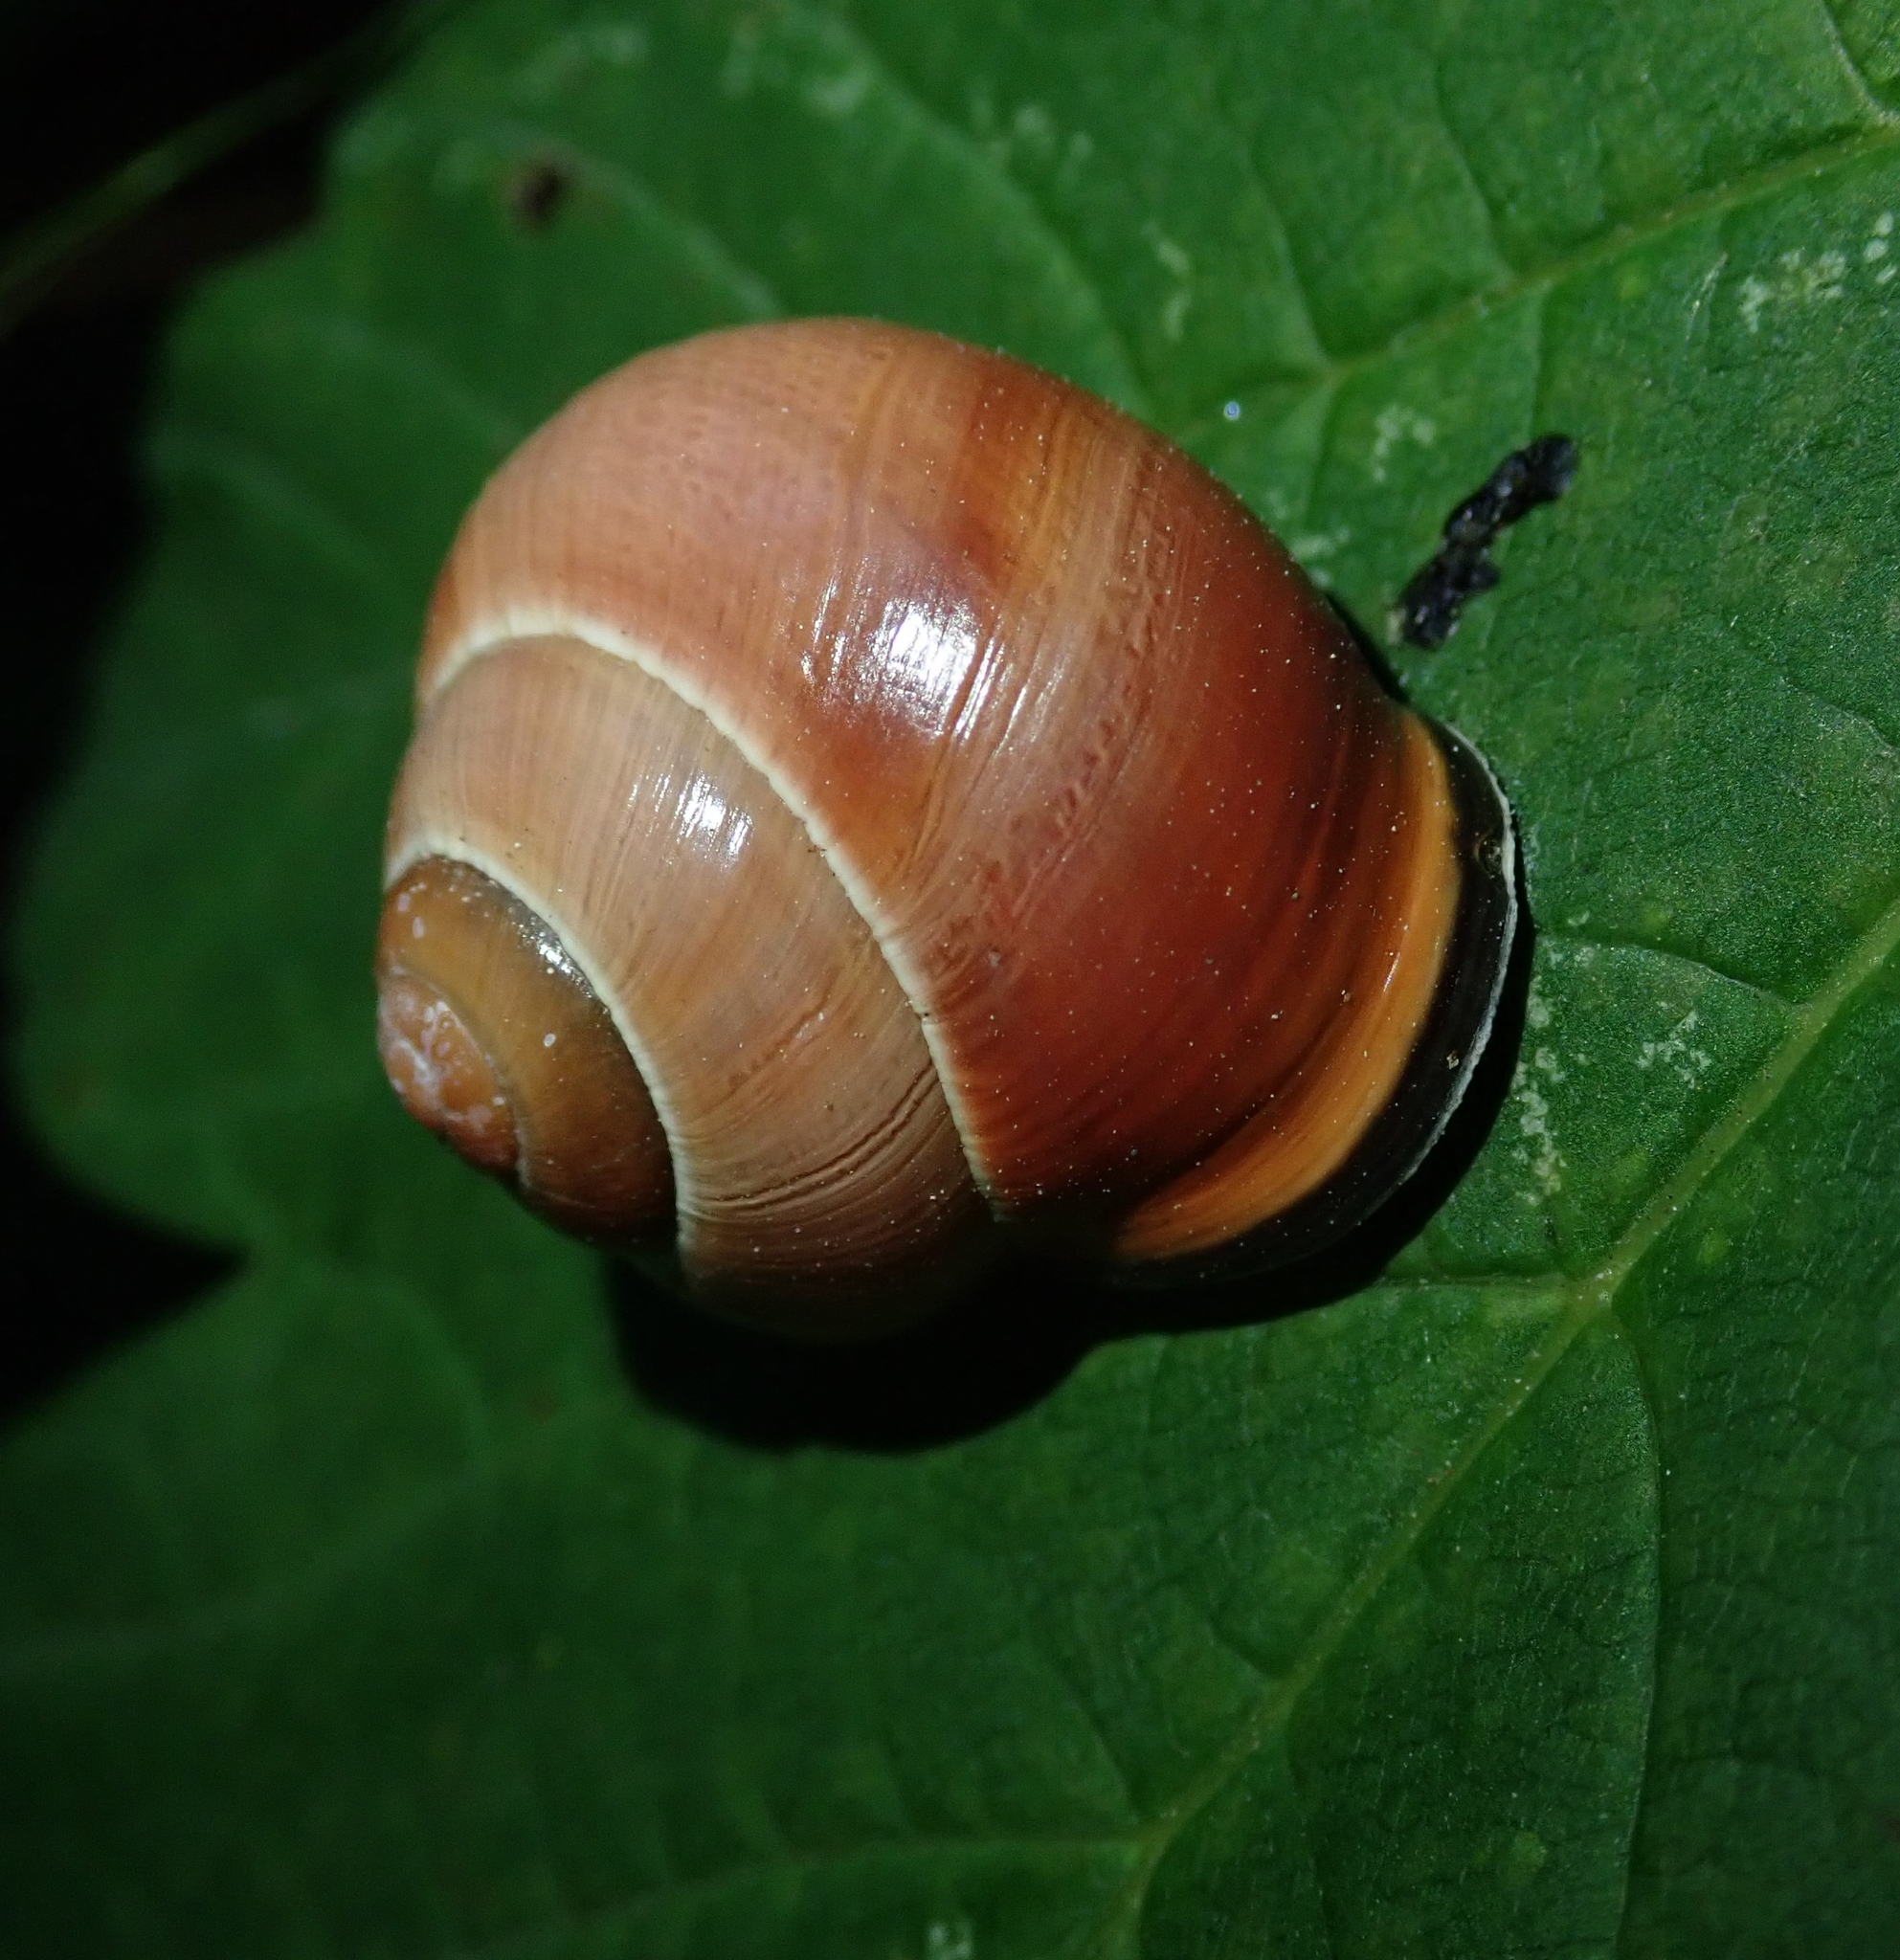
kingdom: Animalia
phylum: Mollusca
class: Gastropoda
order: Stylommatophora
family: Helicidae
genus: Cepaea
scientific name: Cepaea nemoralis
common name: Grovesnail
